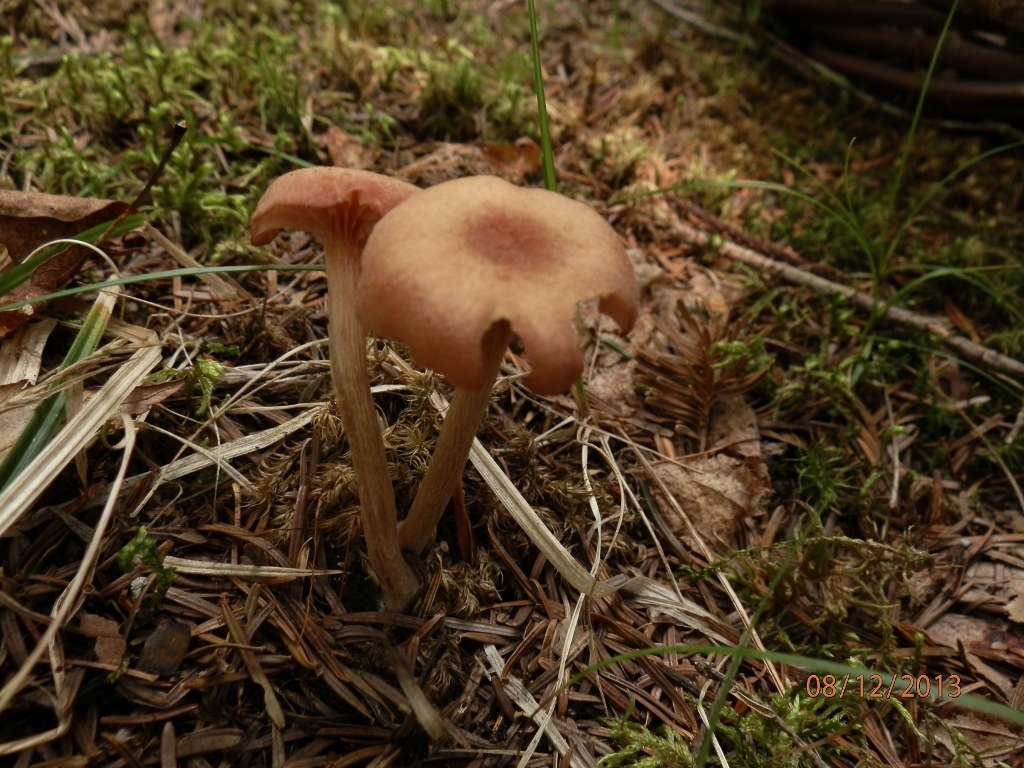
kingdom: Fungi
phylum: Basidiomycota
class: Agaricomycetes
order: Agaricales
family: Hydnangiaceae
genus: Laccaria
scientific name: Laccaria laccata
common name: Deceiver
